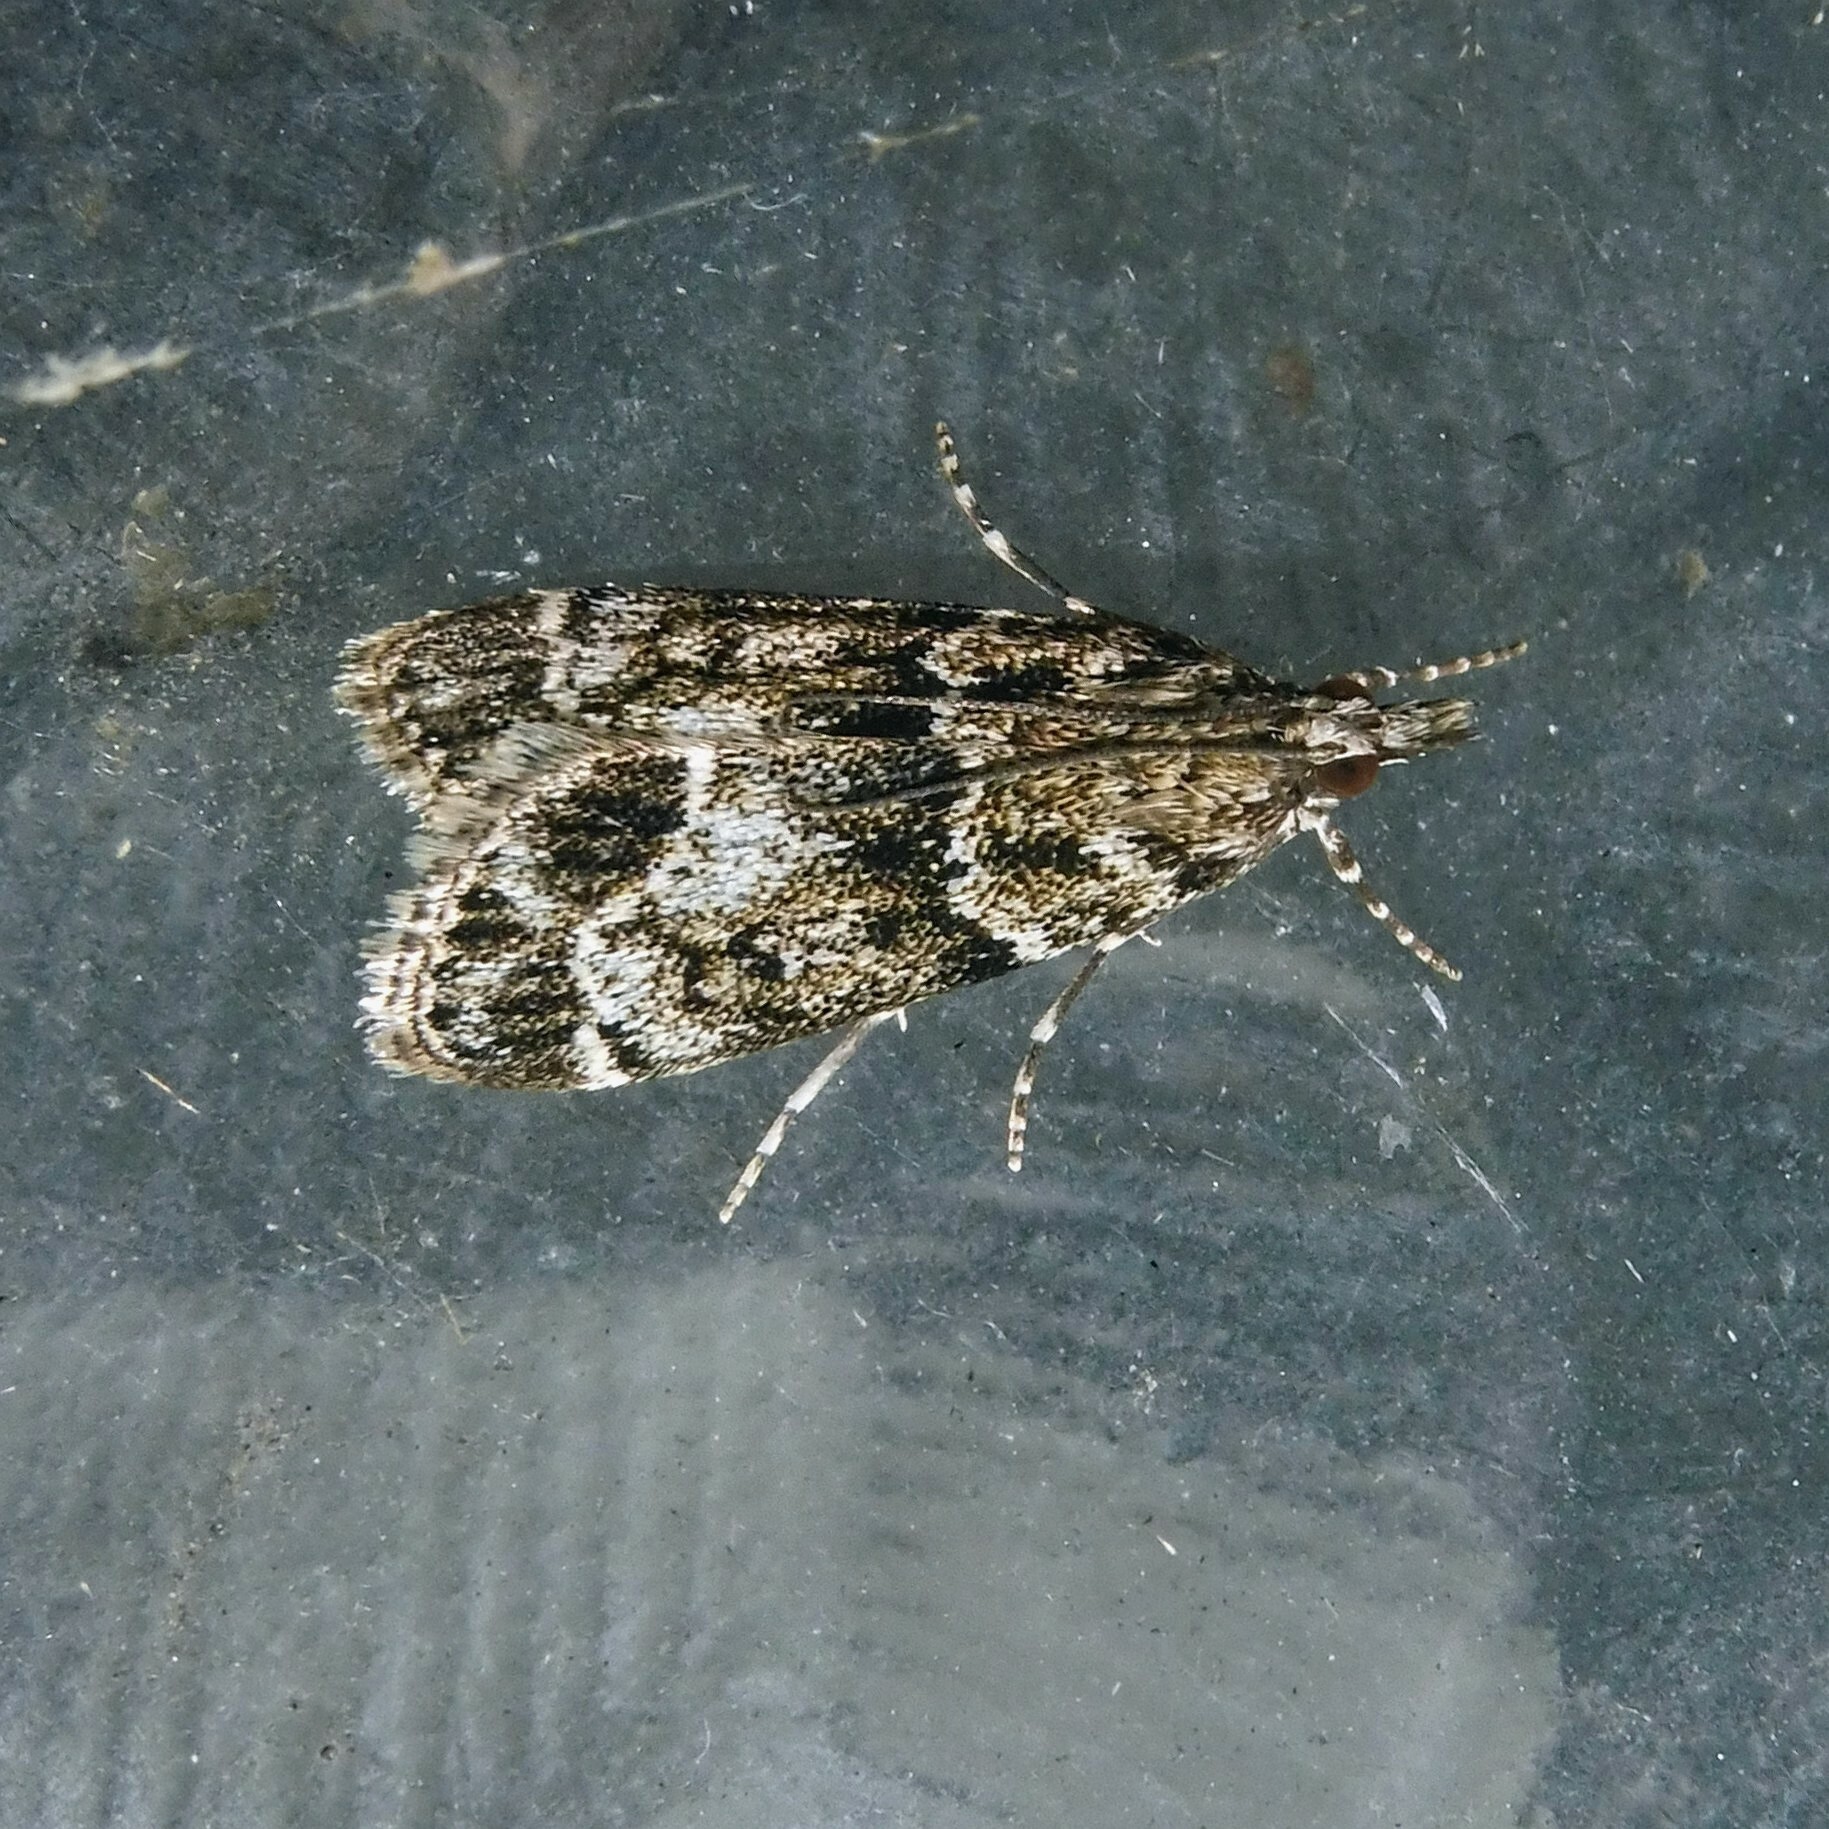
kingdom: Animalia
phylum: Arthropoda
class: Insecta
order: Lepidoptera
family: Crambidae
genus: Eudonia
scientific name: Eudonia mercurella
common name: Small grey
